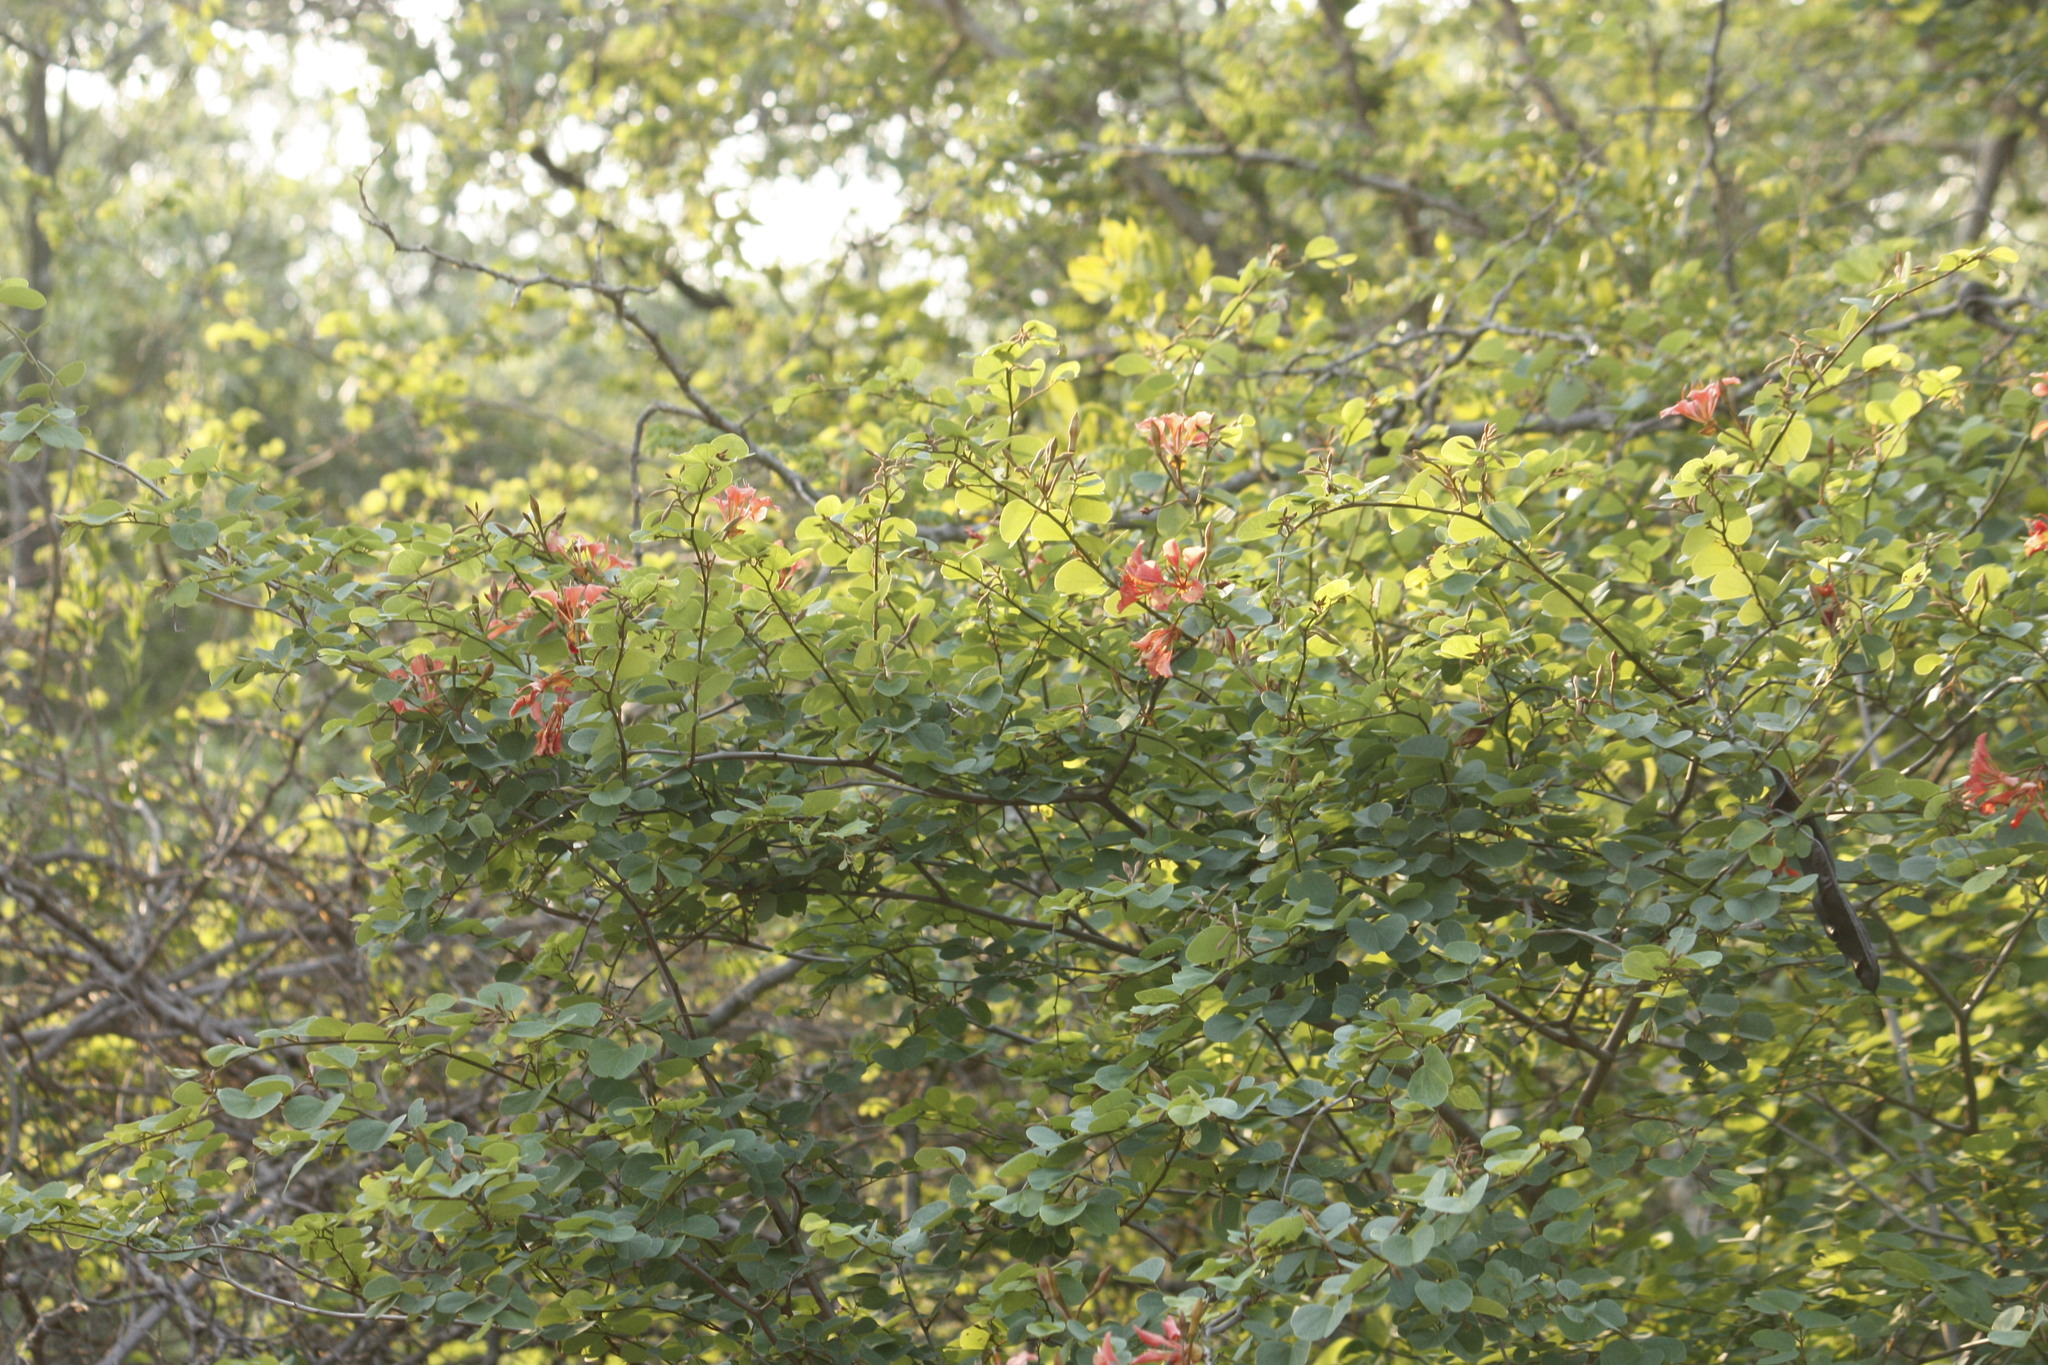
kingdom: Plantae
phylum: Tracheophyta
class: Magnoliopsida
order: Fabales
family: Fabaceae
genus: Bauhinia
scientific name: Bauhinia galpinii
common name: African plume
